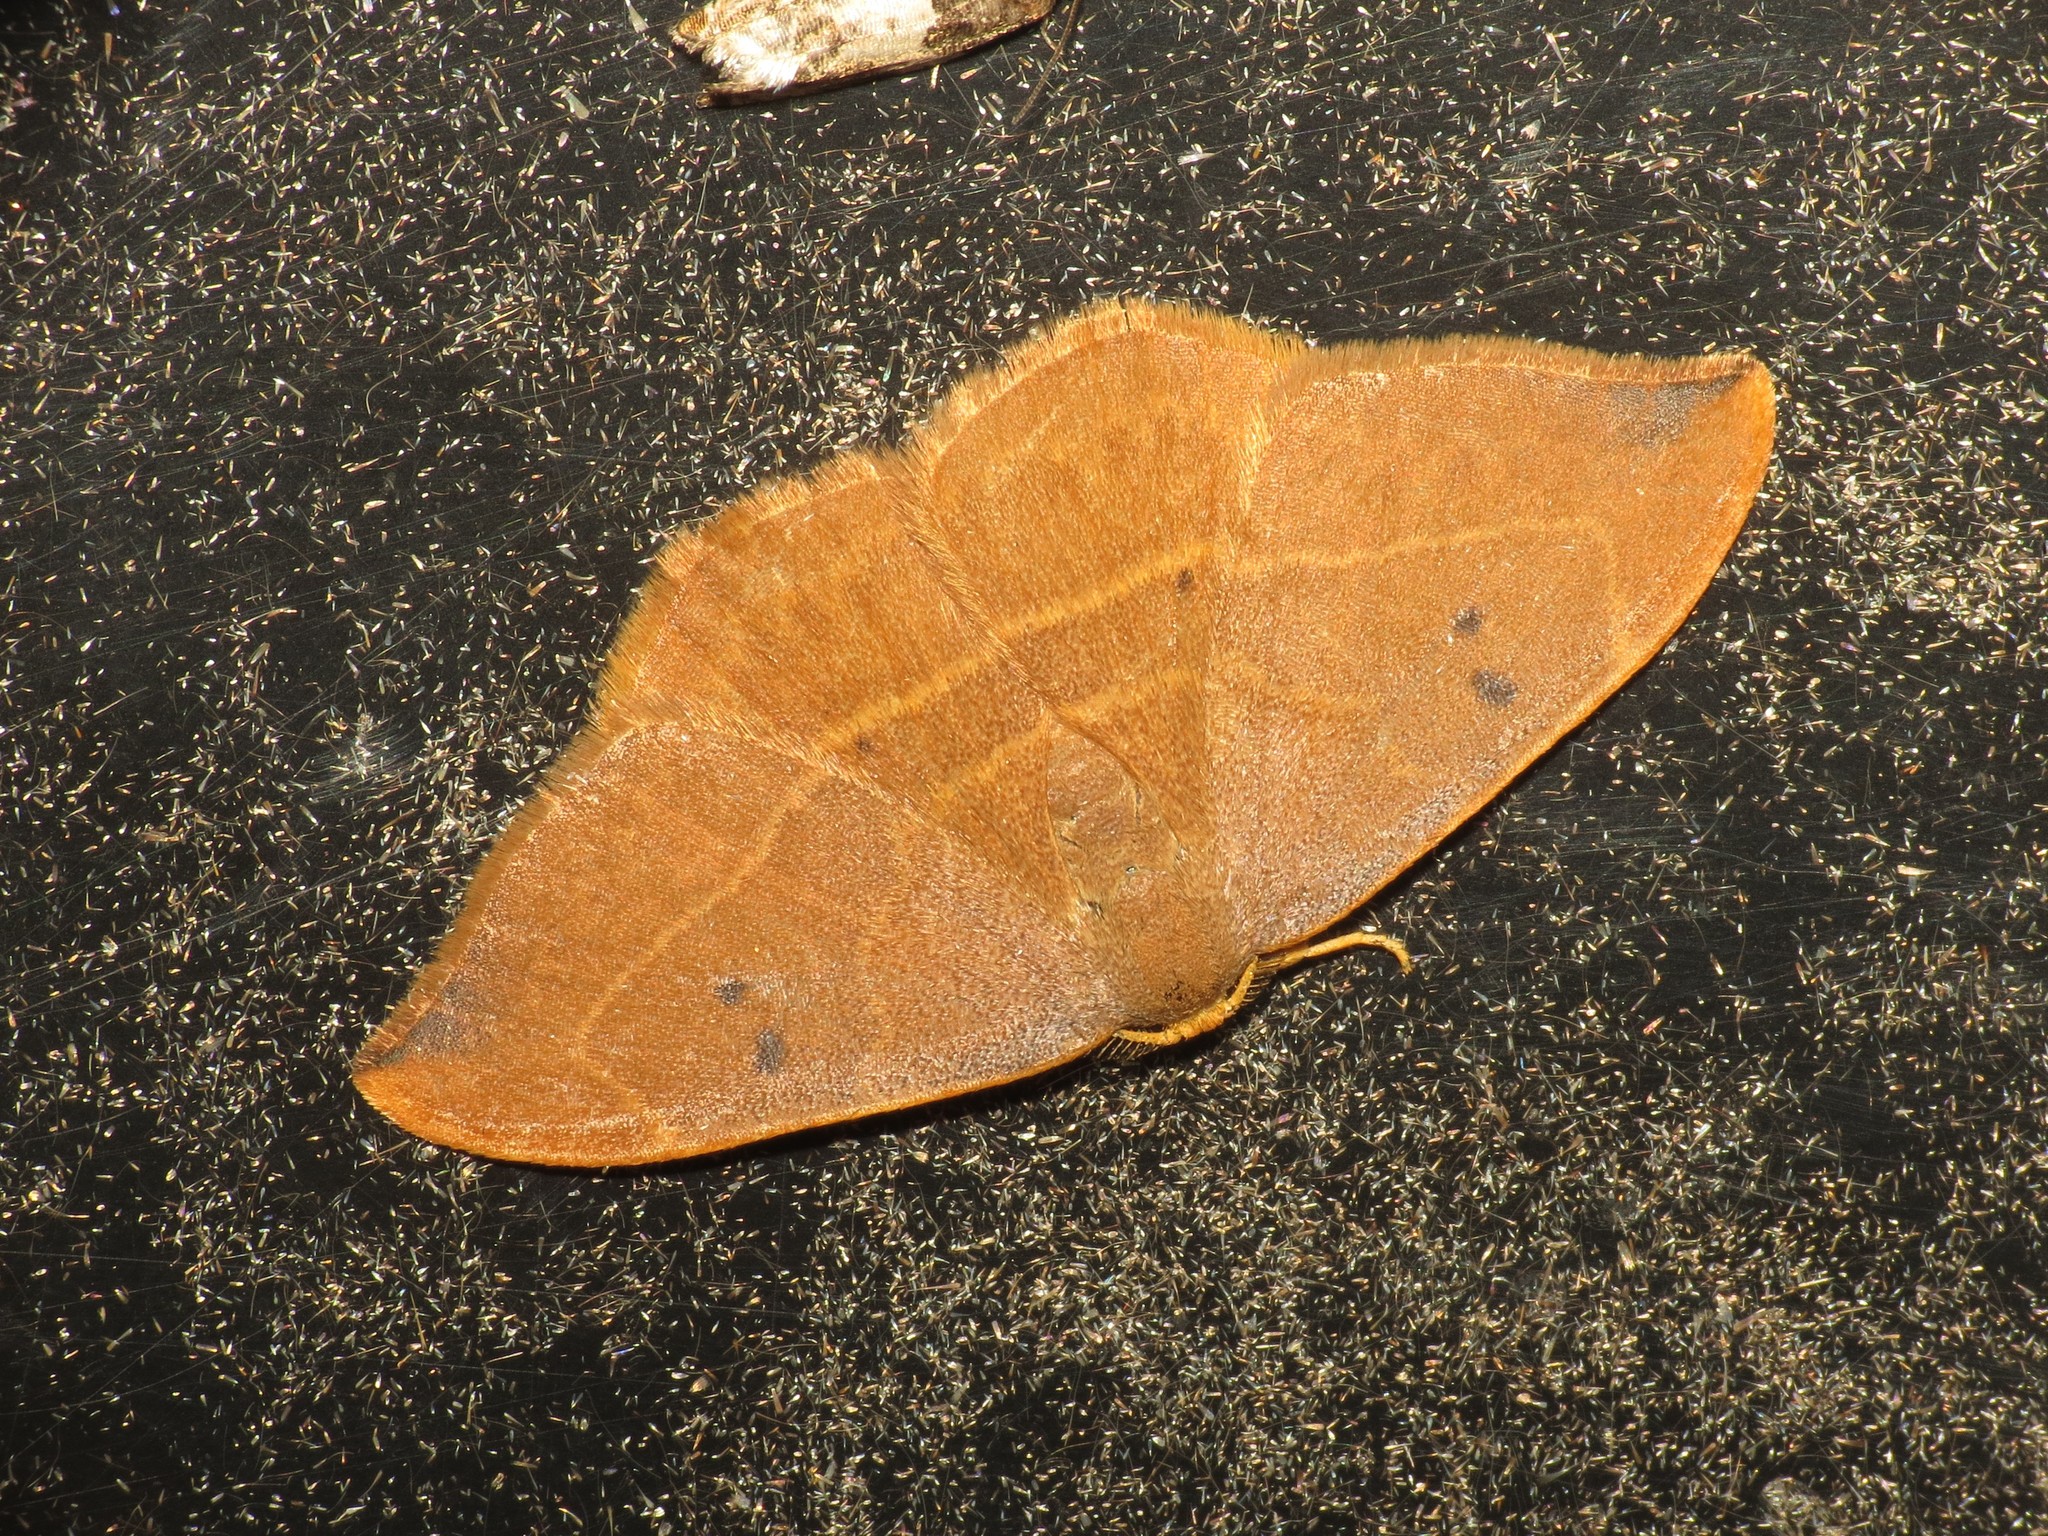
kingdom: Animalia
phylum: Arthropoda
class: Insecta
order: Lepidoptera
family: Drepanidae
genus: Watsonalla
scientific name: Watsonalla binaria
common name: Oak hook-tip
